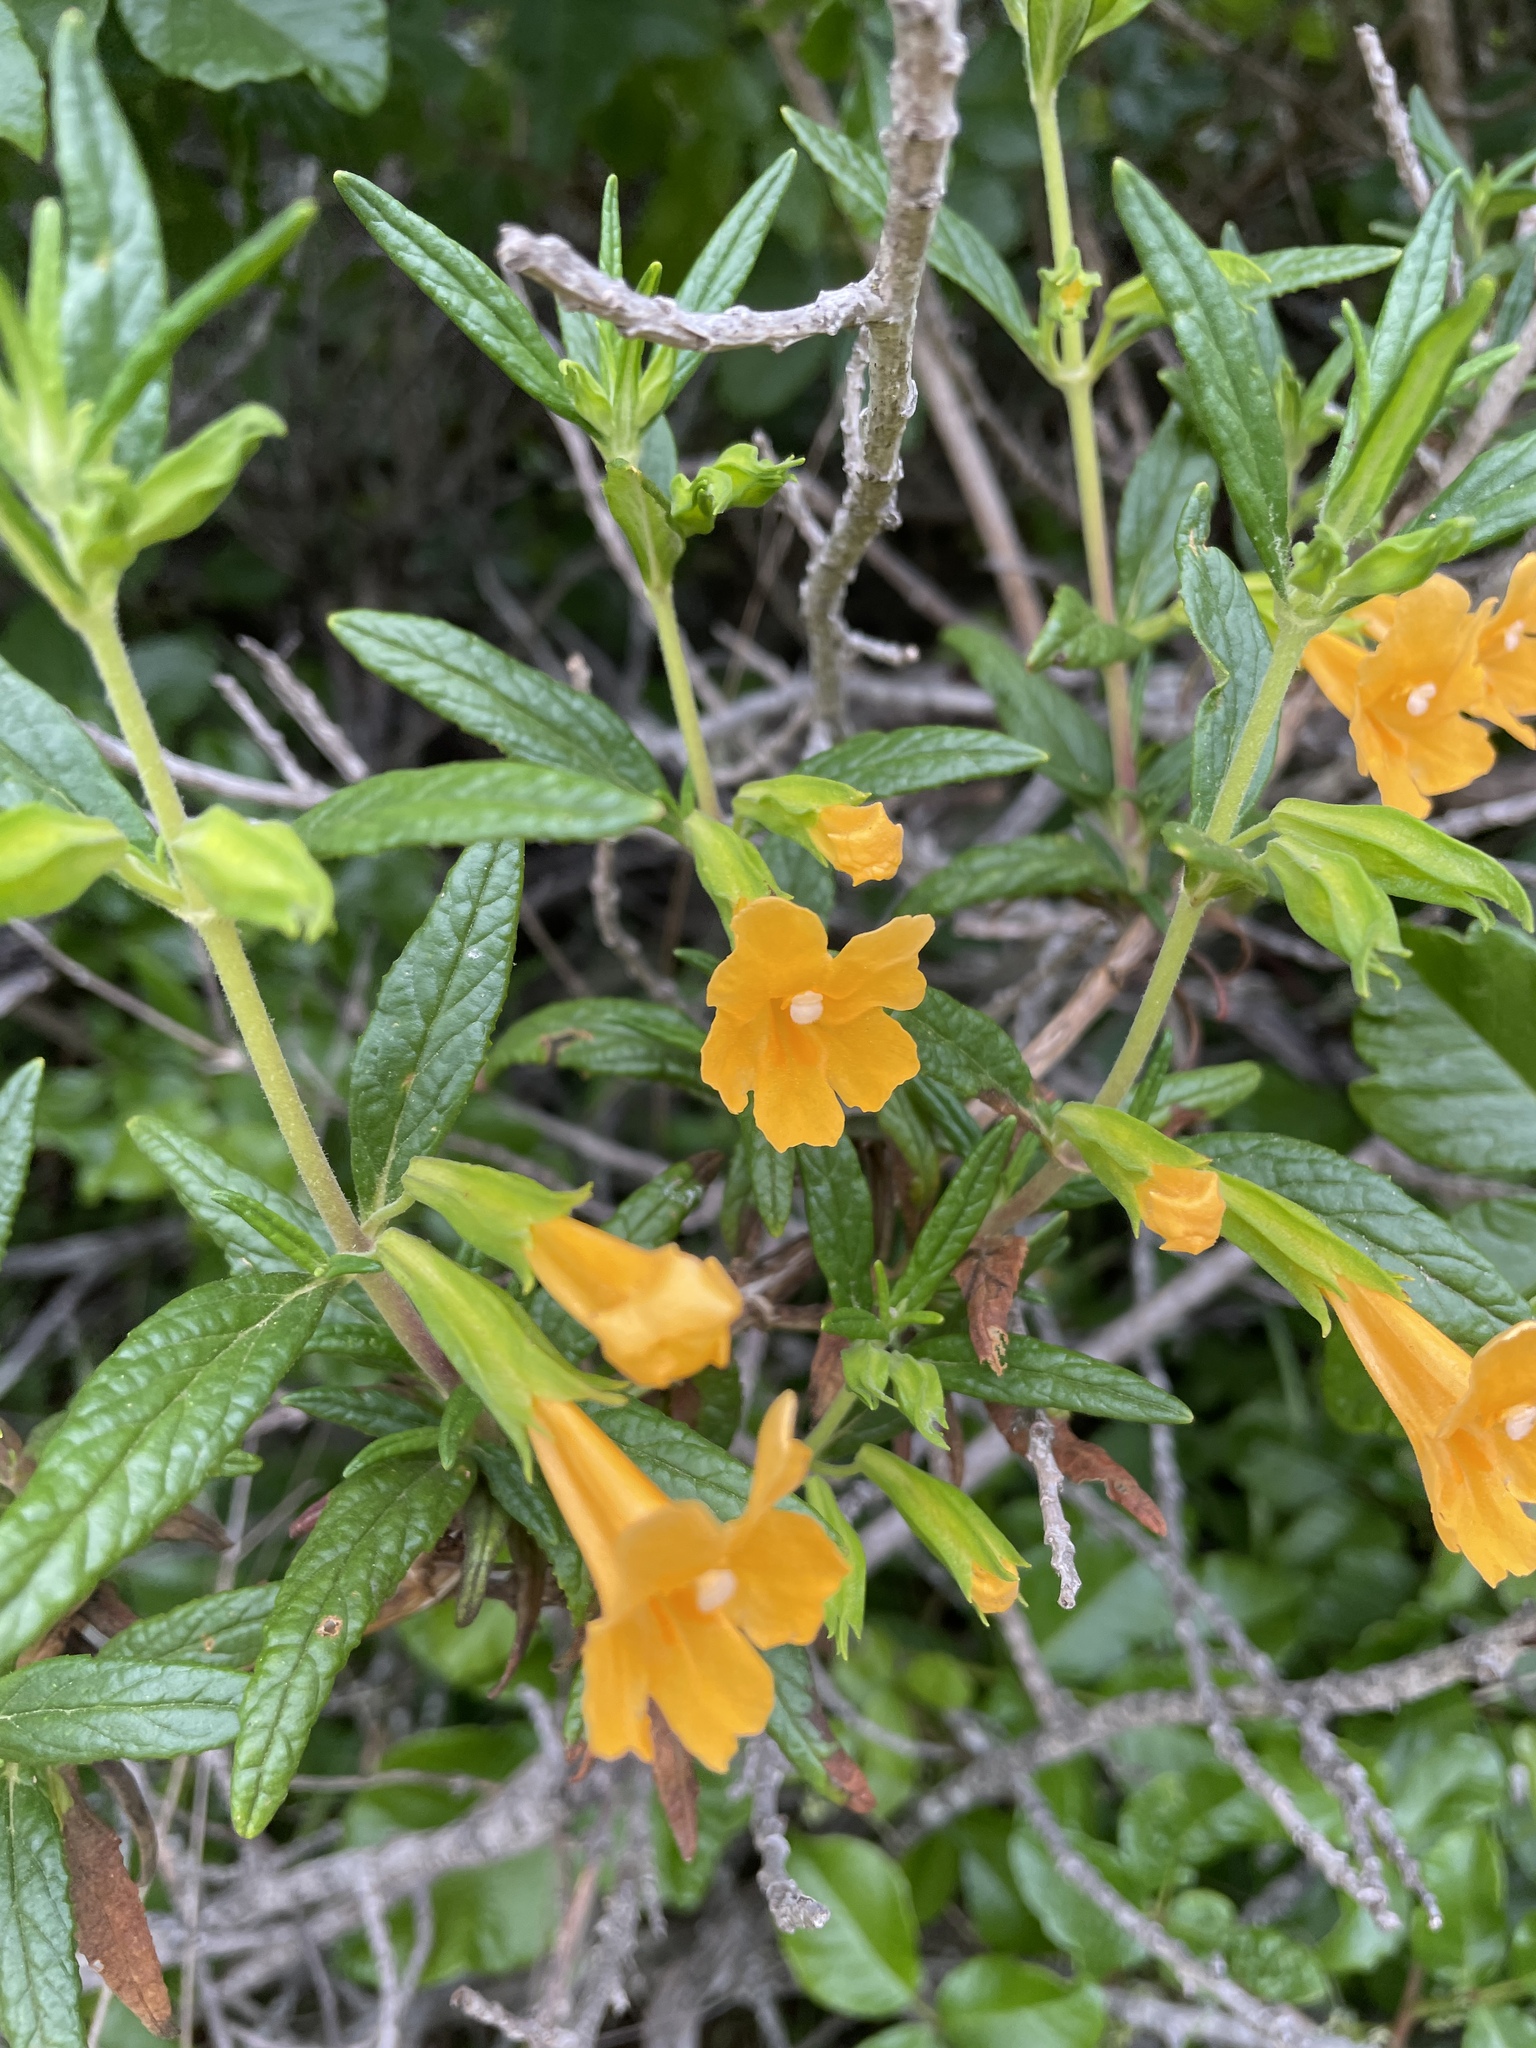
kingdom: Plantae
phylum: Tracheophyta
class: Magnoliopsida
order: Lamiales
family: Phrymaceae
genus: Diplacus
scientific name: Diplacus aurantiacus
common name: Bush monkey-flower
